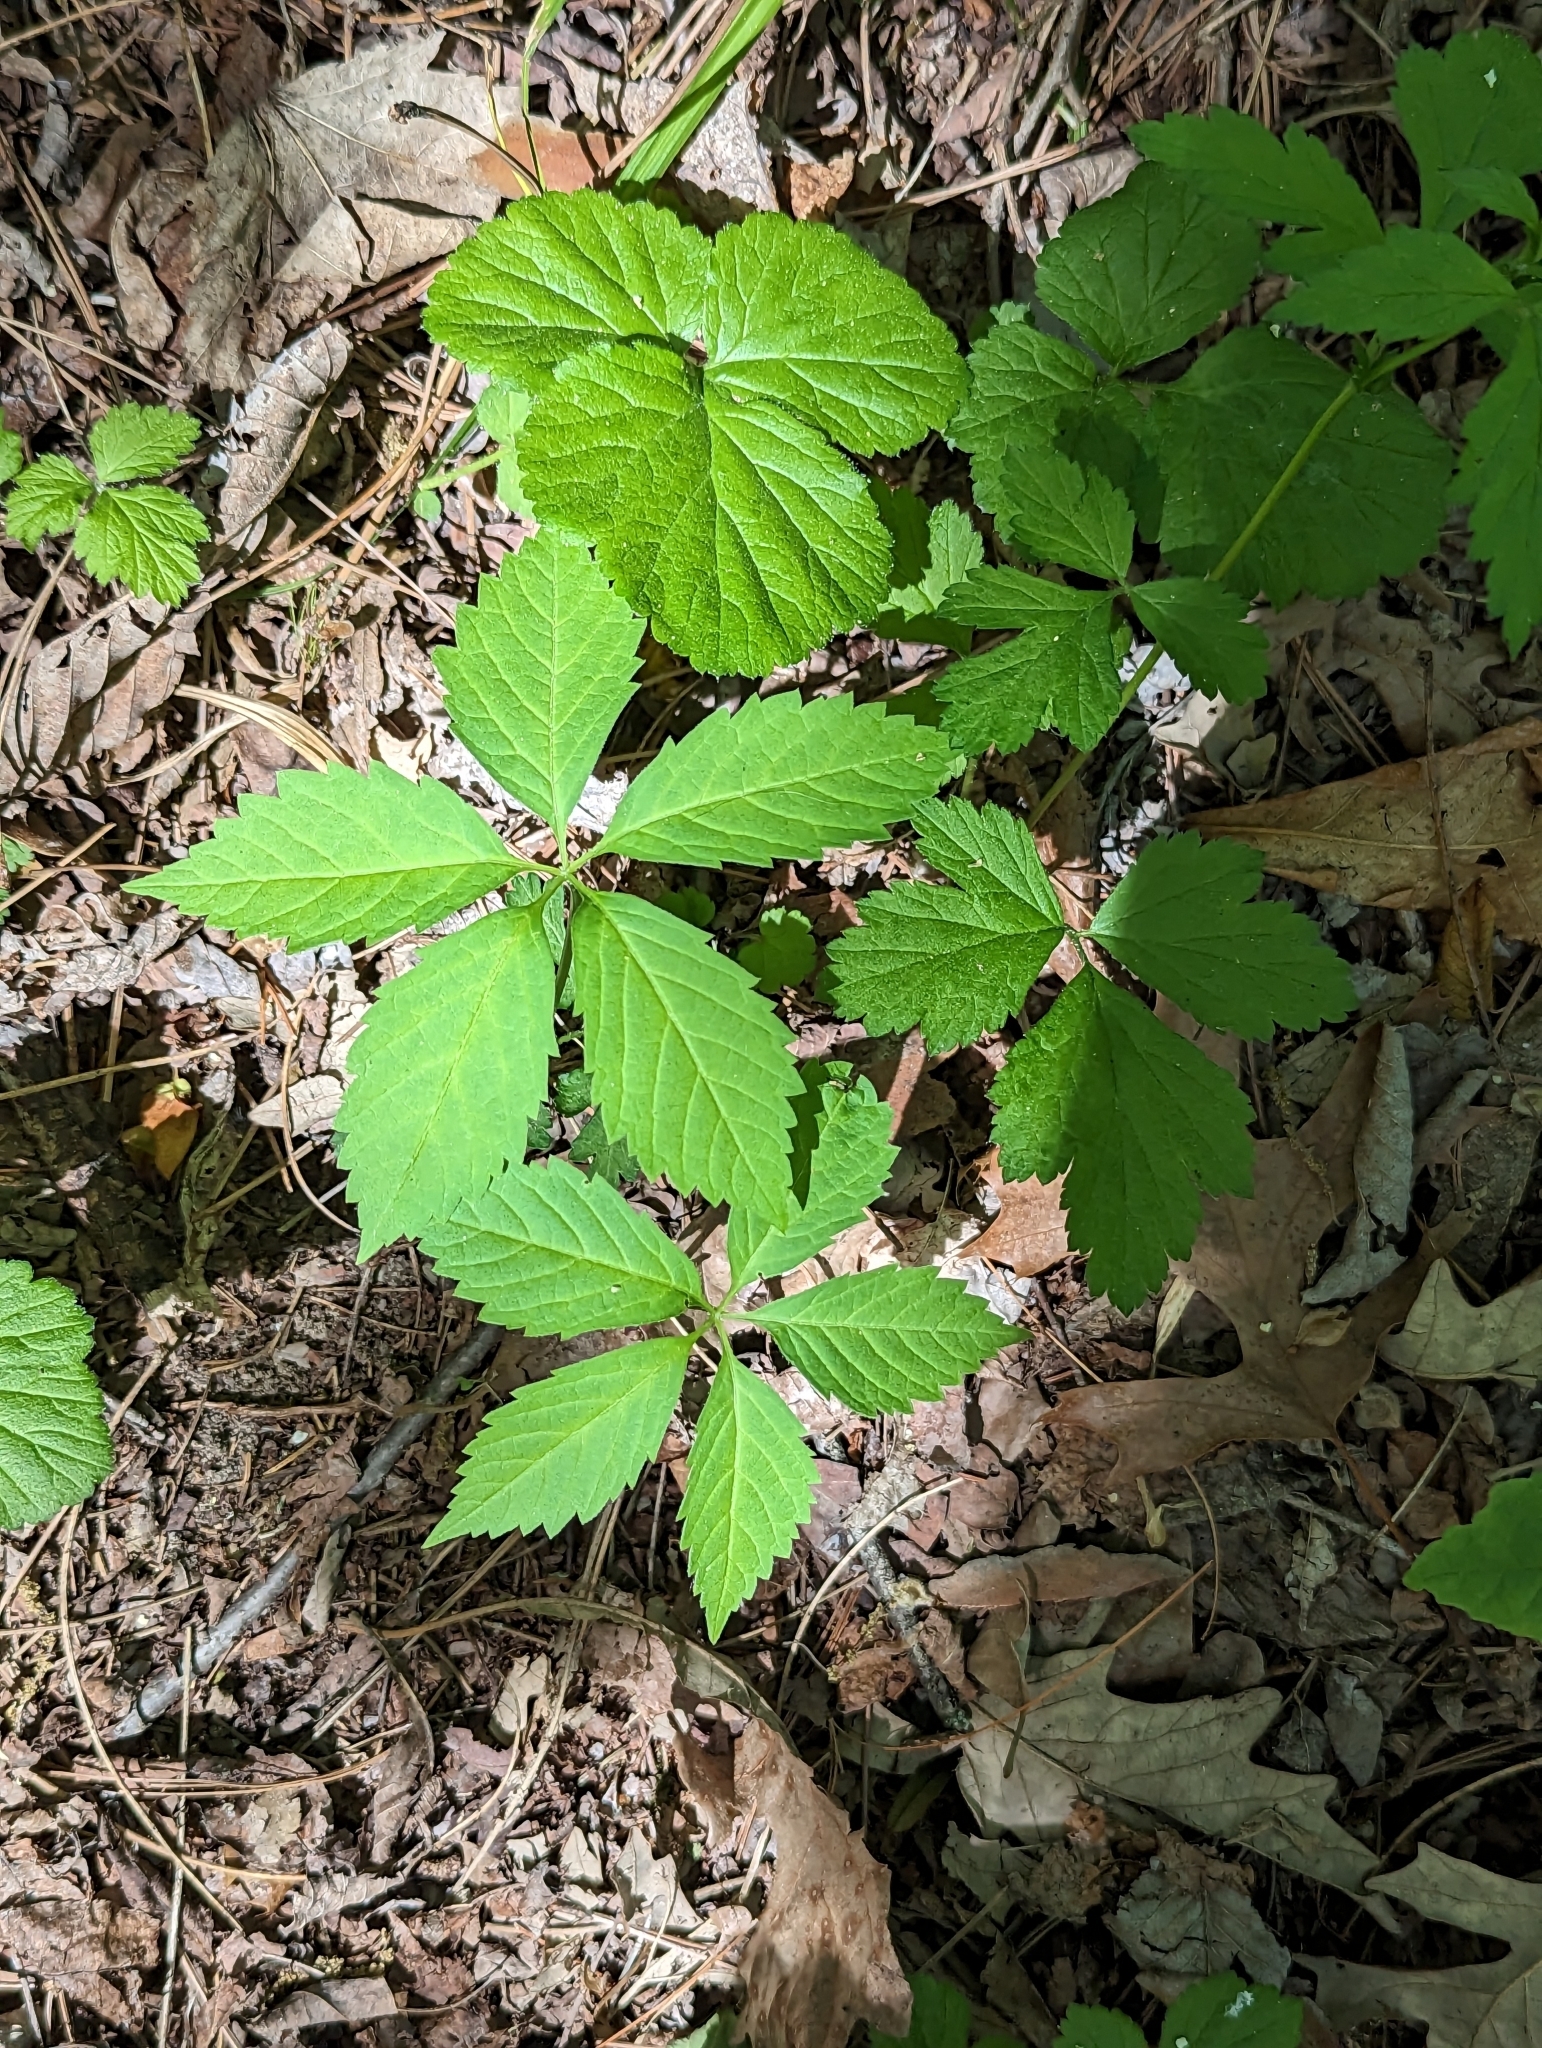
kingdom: Plantae
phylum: Tracheophyta
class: Magnoliopsida
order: Vitales
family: Vitaceae
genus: Parthenocissus
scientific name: Parthenocissus inserta
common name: False virginia-creeper
